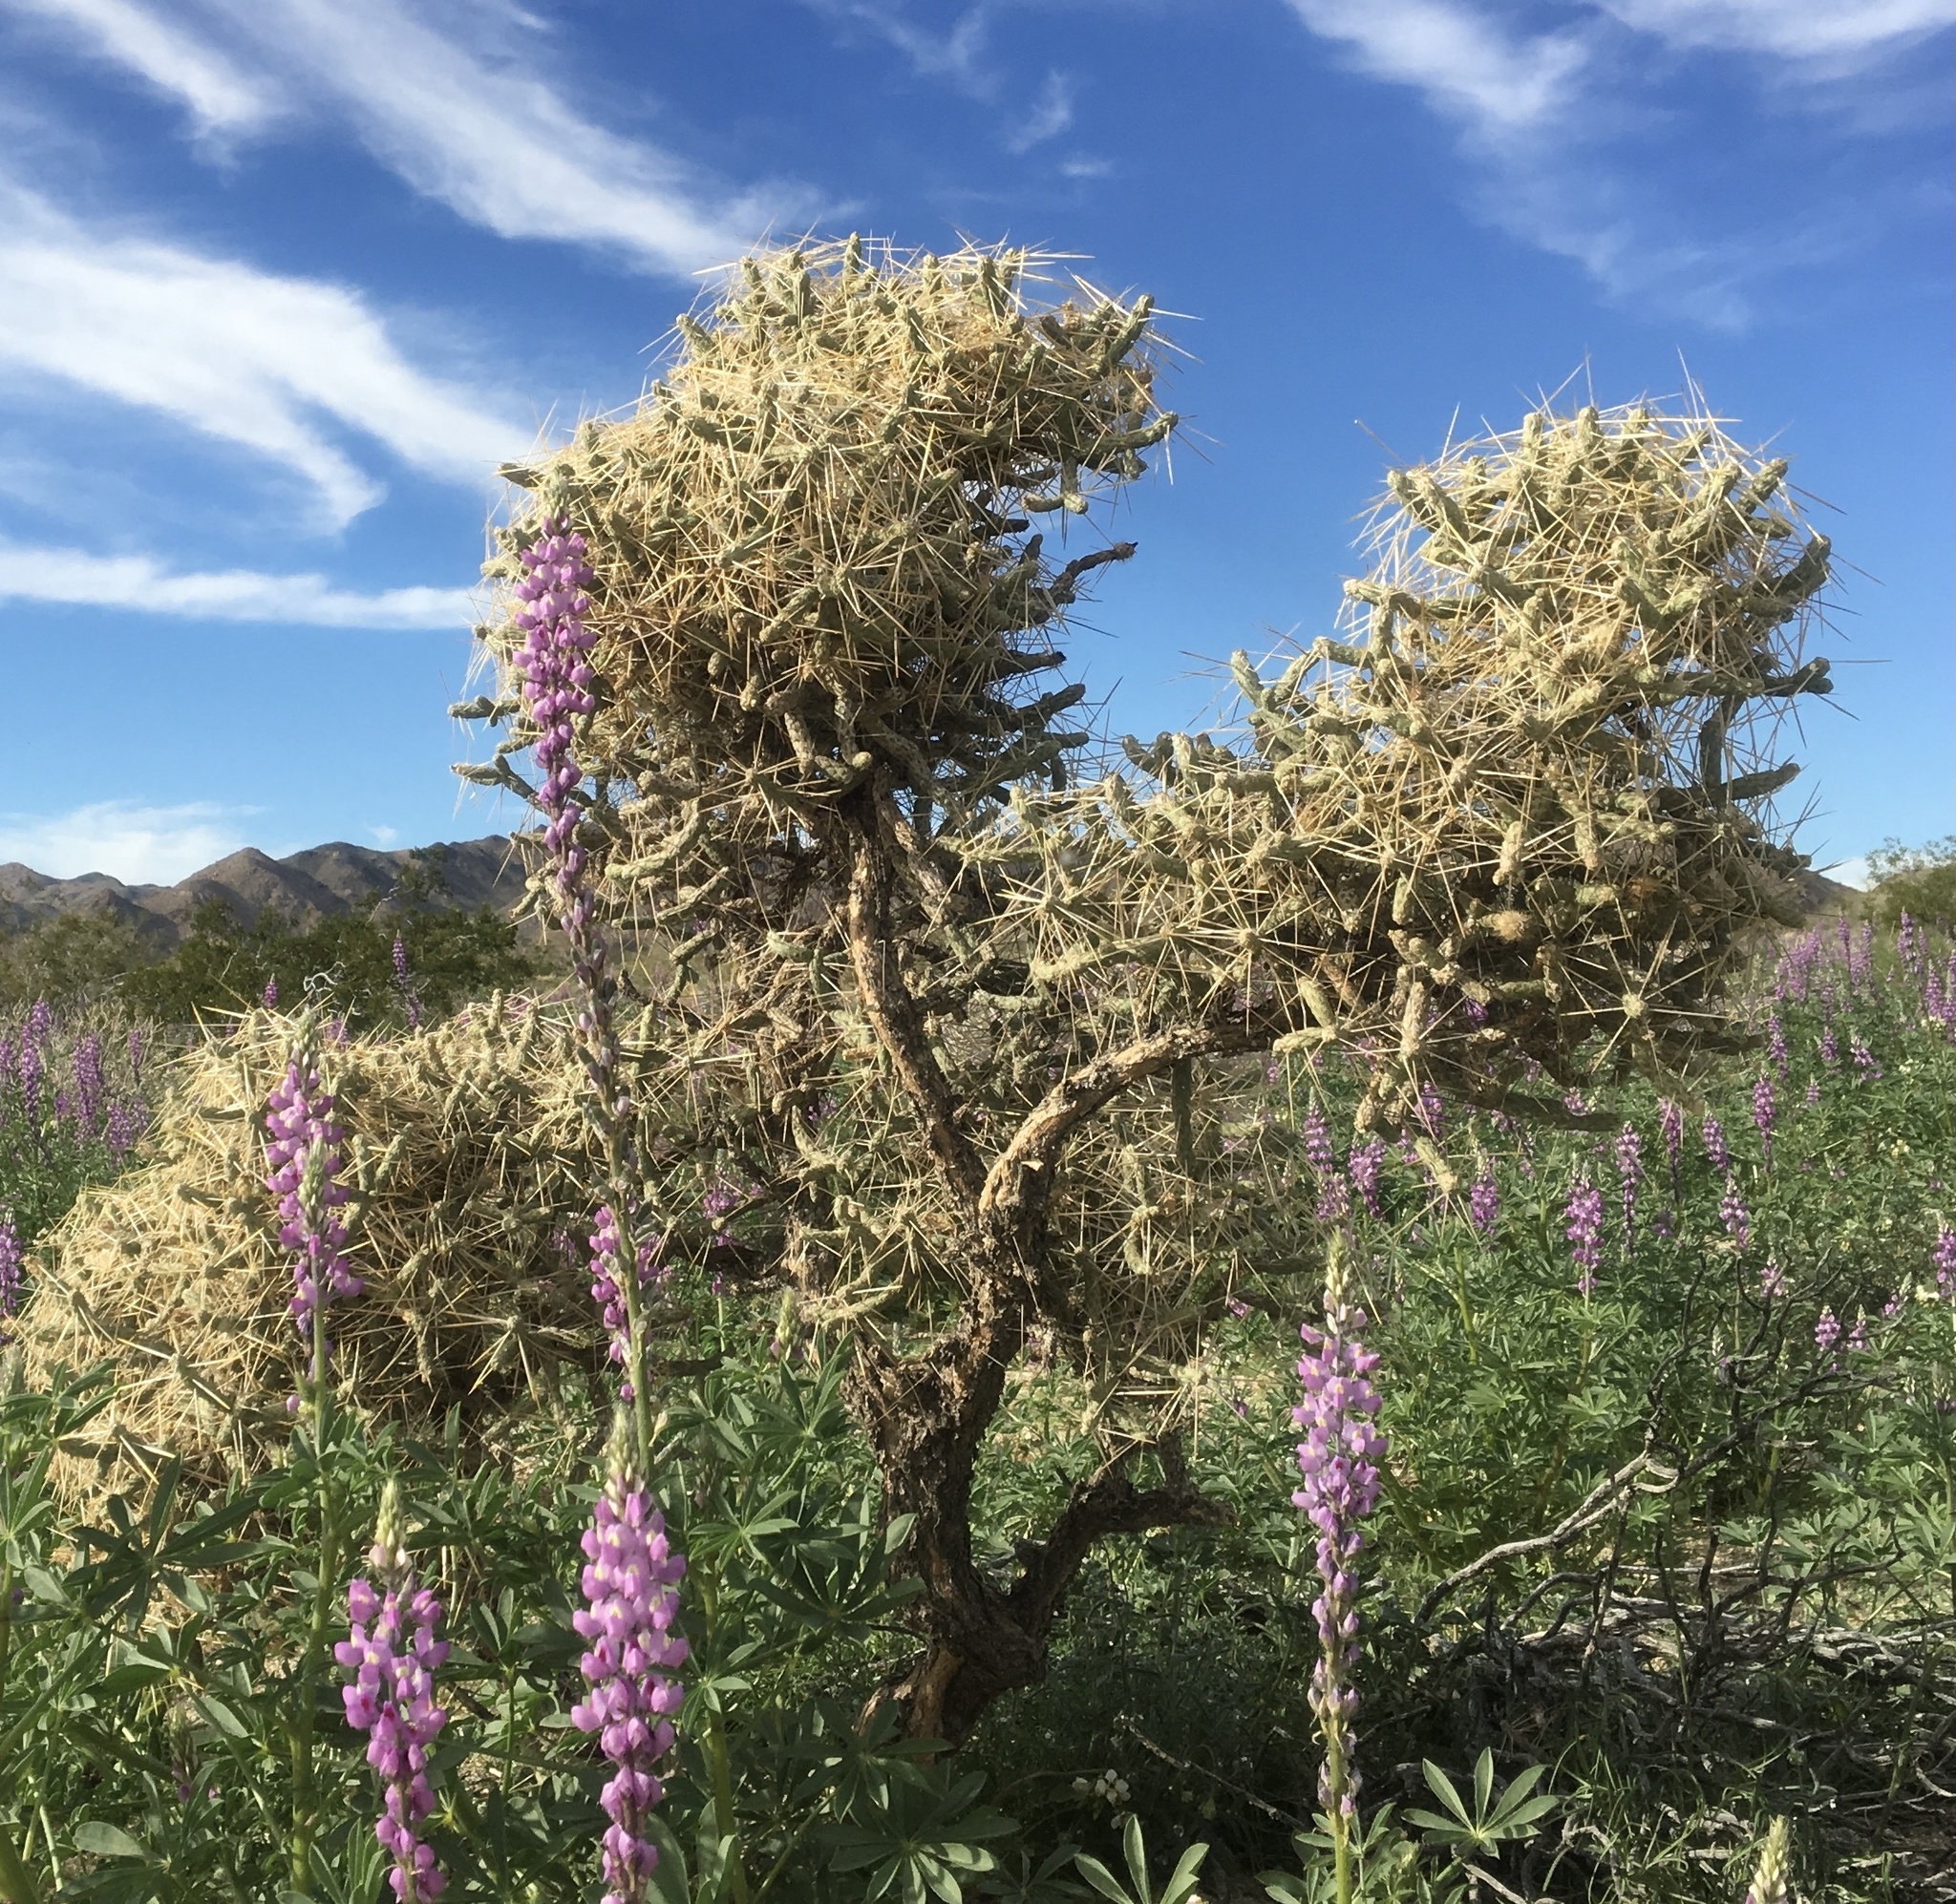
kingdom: Plantae
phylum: Tracheophyta
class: Magnoliopsida
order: Caryophyllales
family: Cactaceae
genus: Cylindropuntia
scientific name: Cylindropuntia ramosissima
